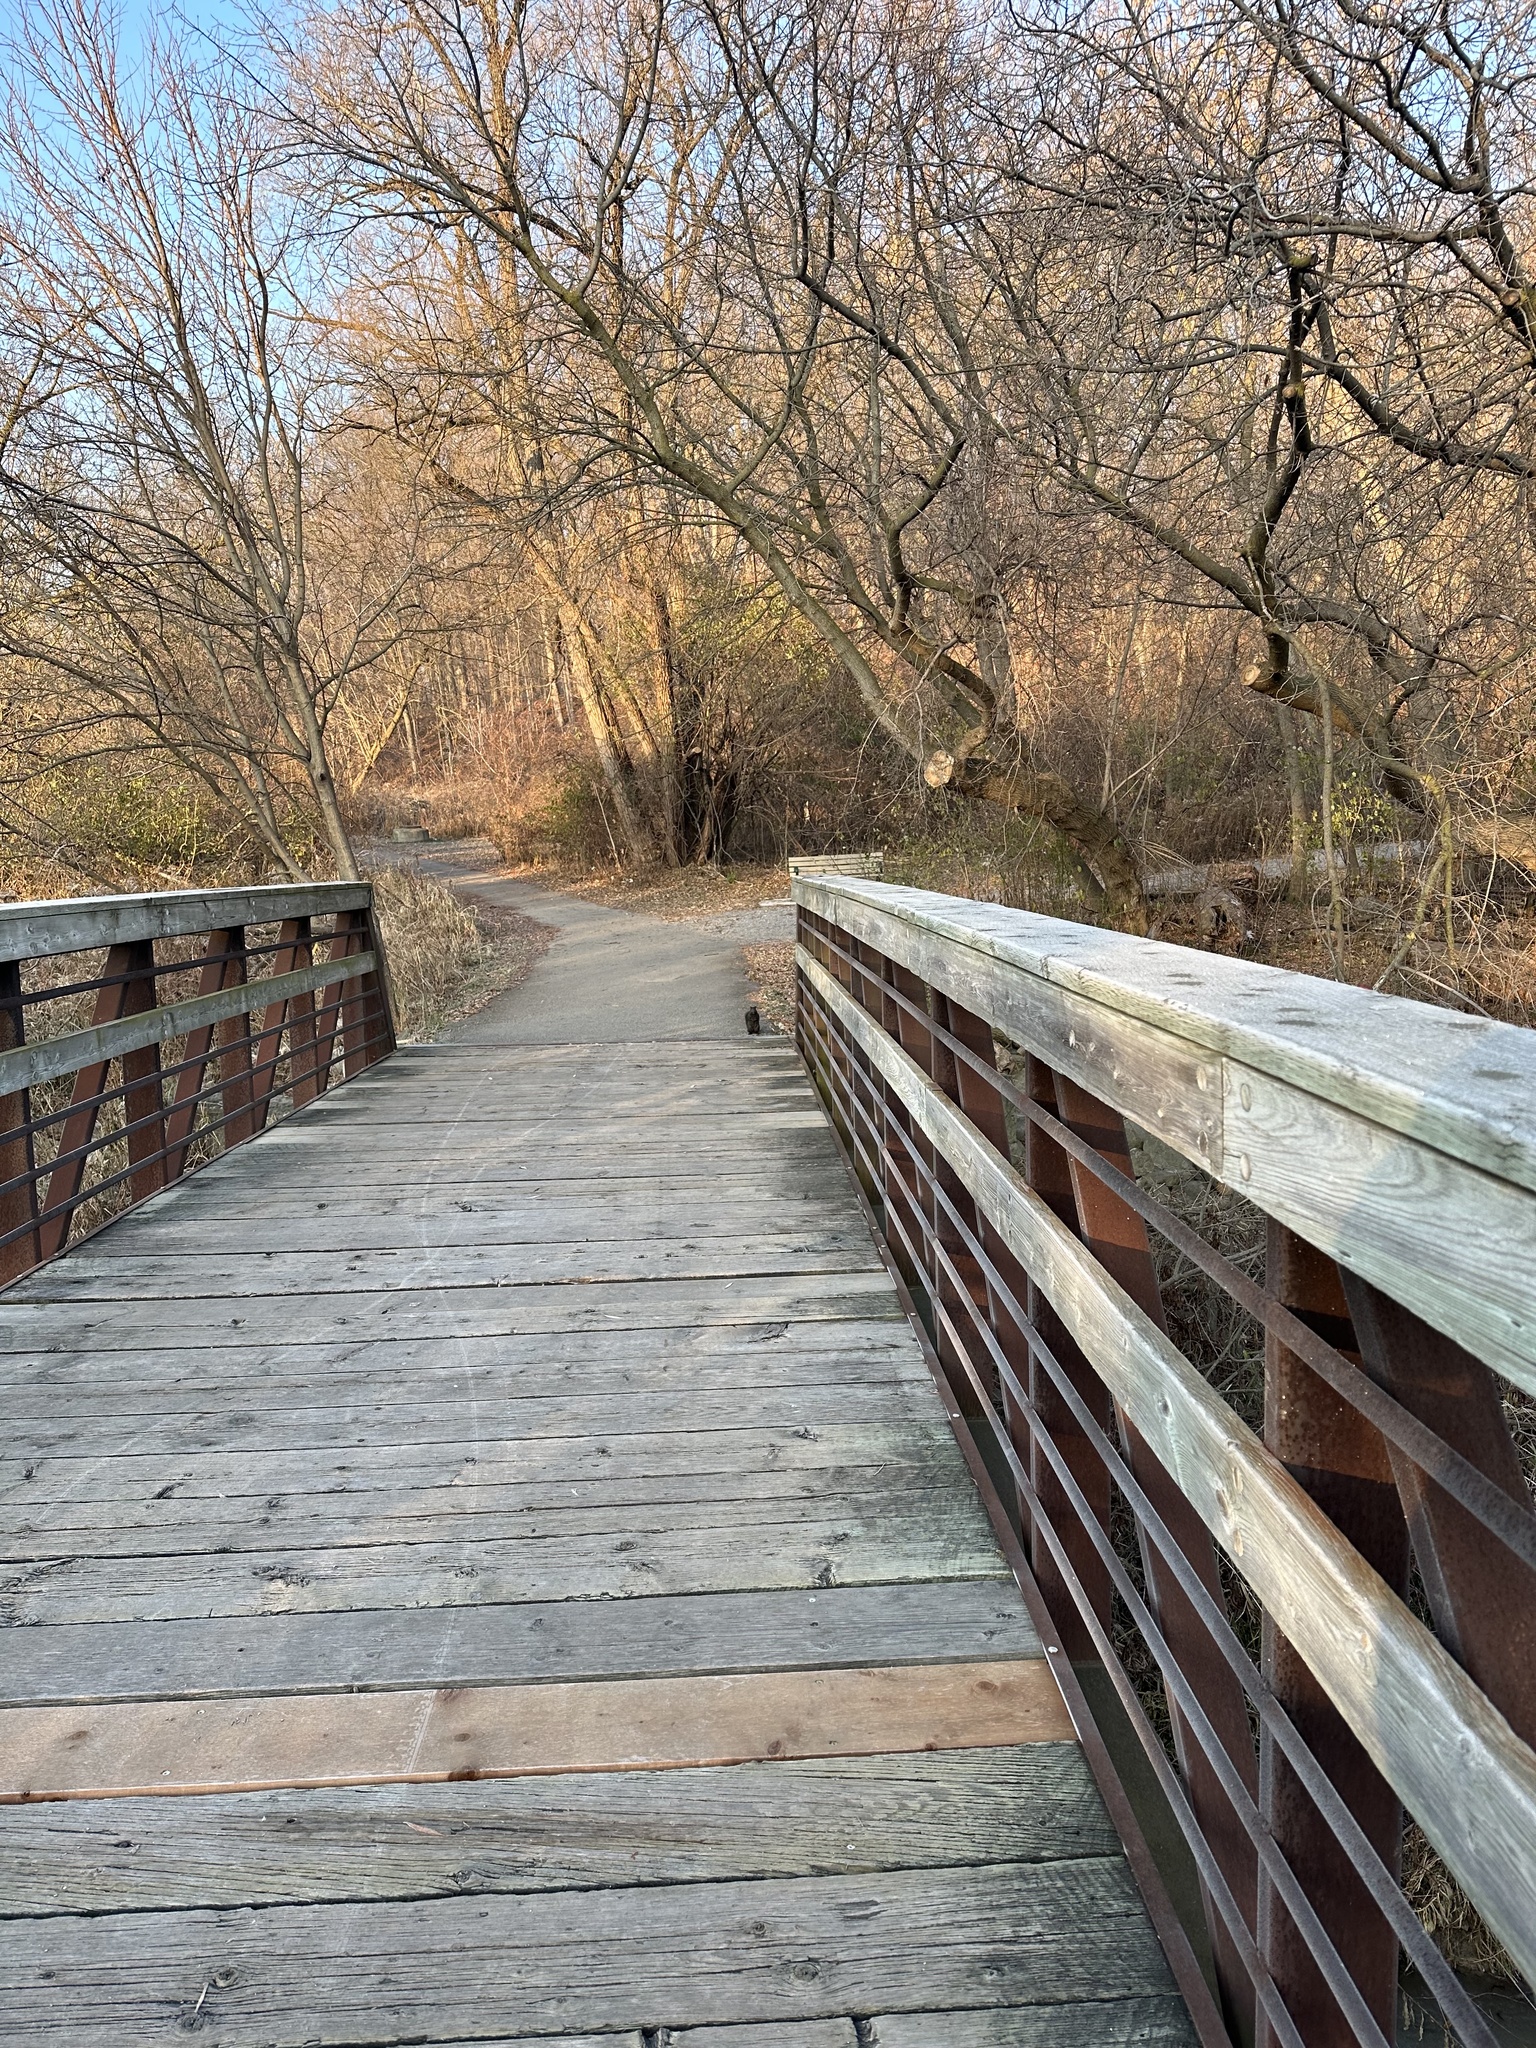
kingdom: Animalia
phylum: Chordata
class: Mammalia
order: Rodentia
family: Sciuridae
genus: Sciurus
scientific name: Sciurus carolinensis
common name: Eastern gray squirrel
